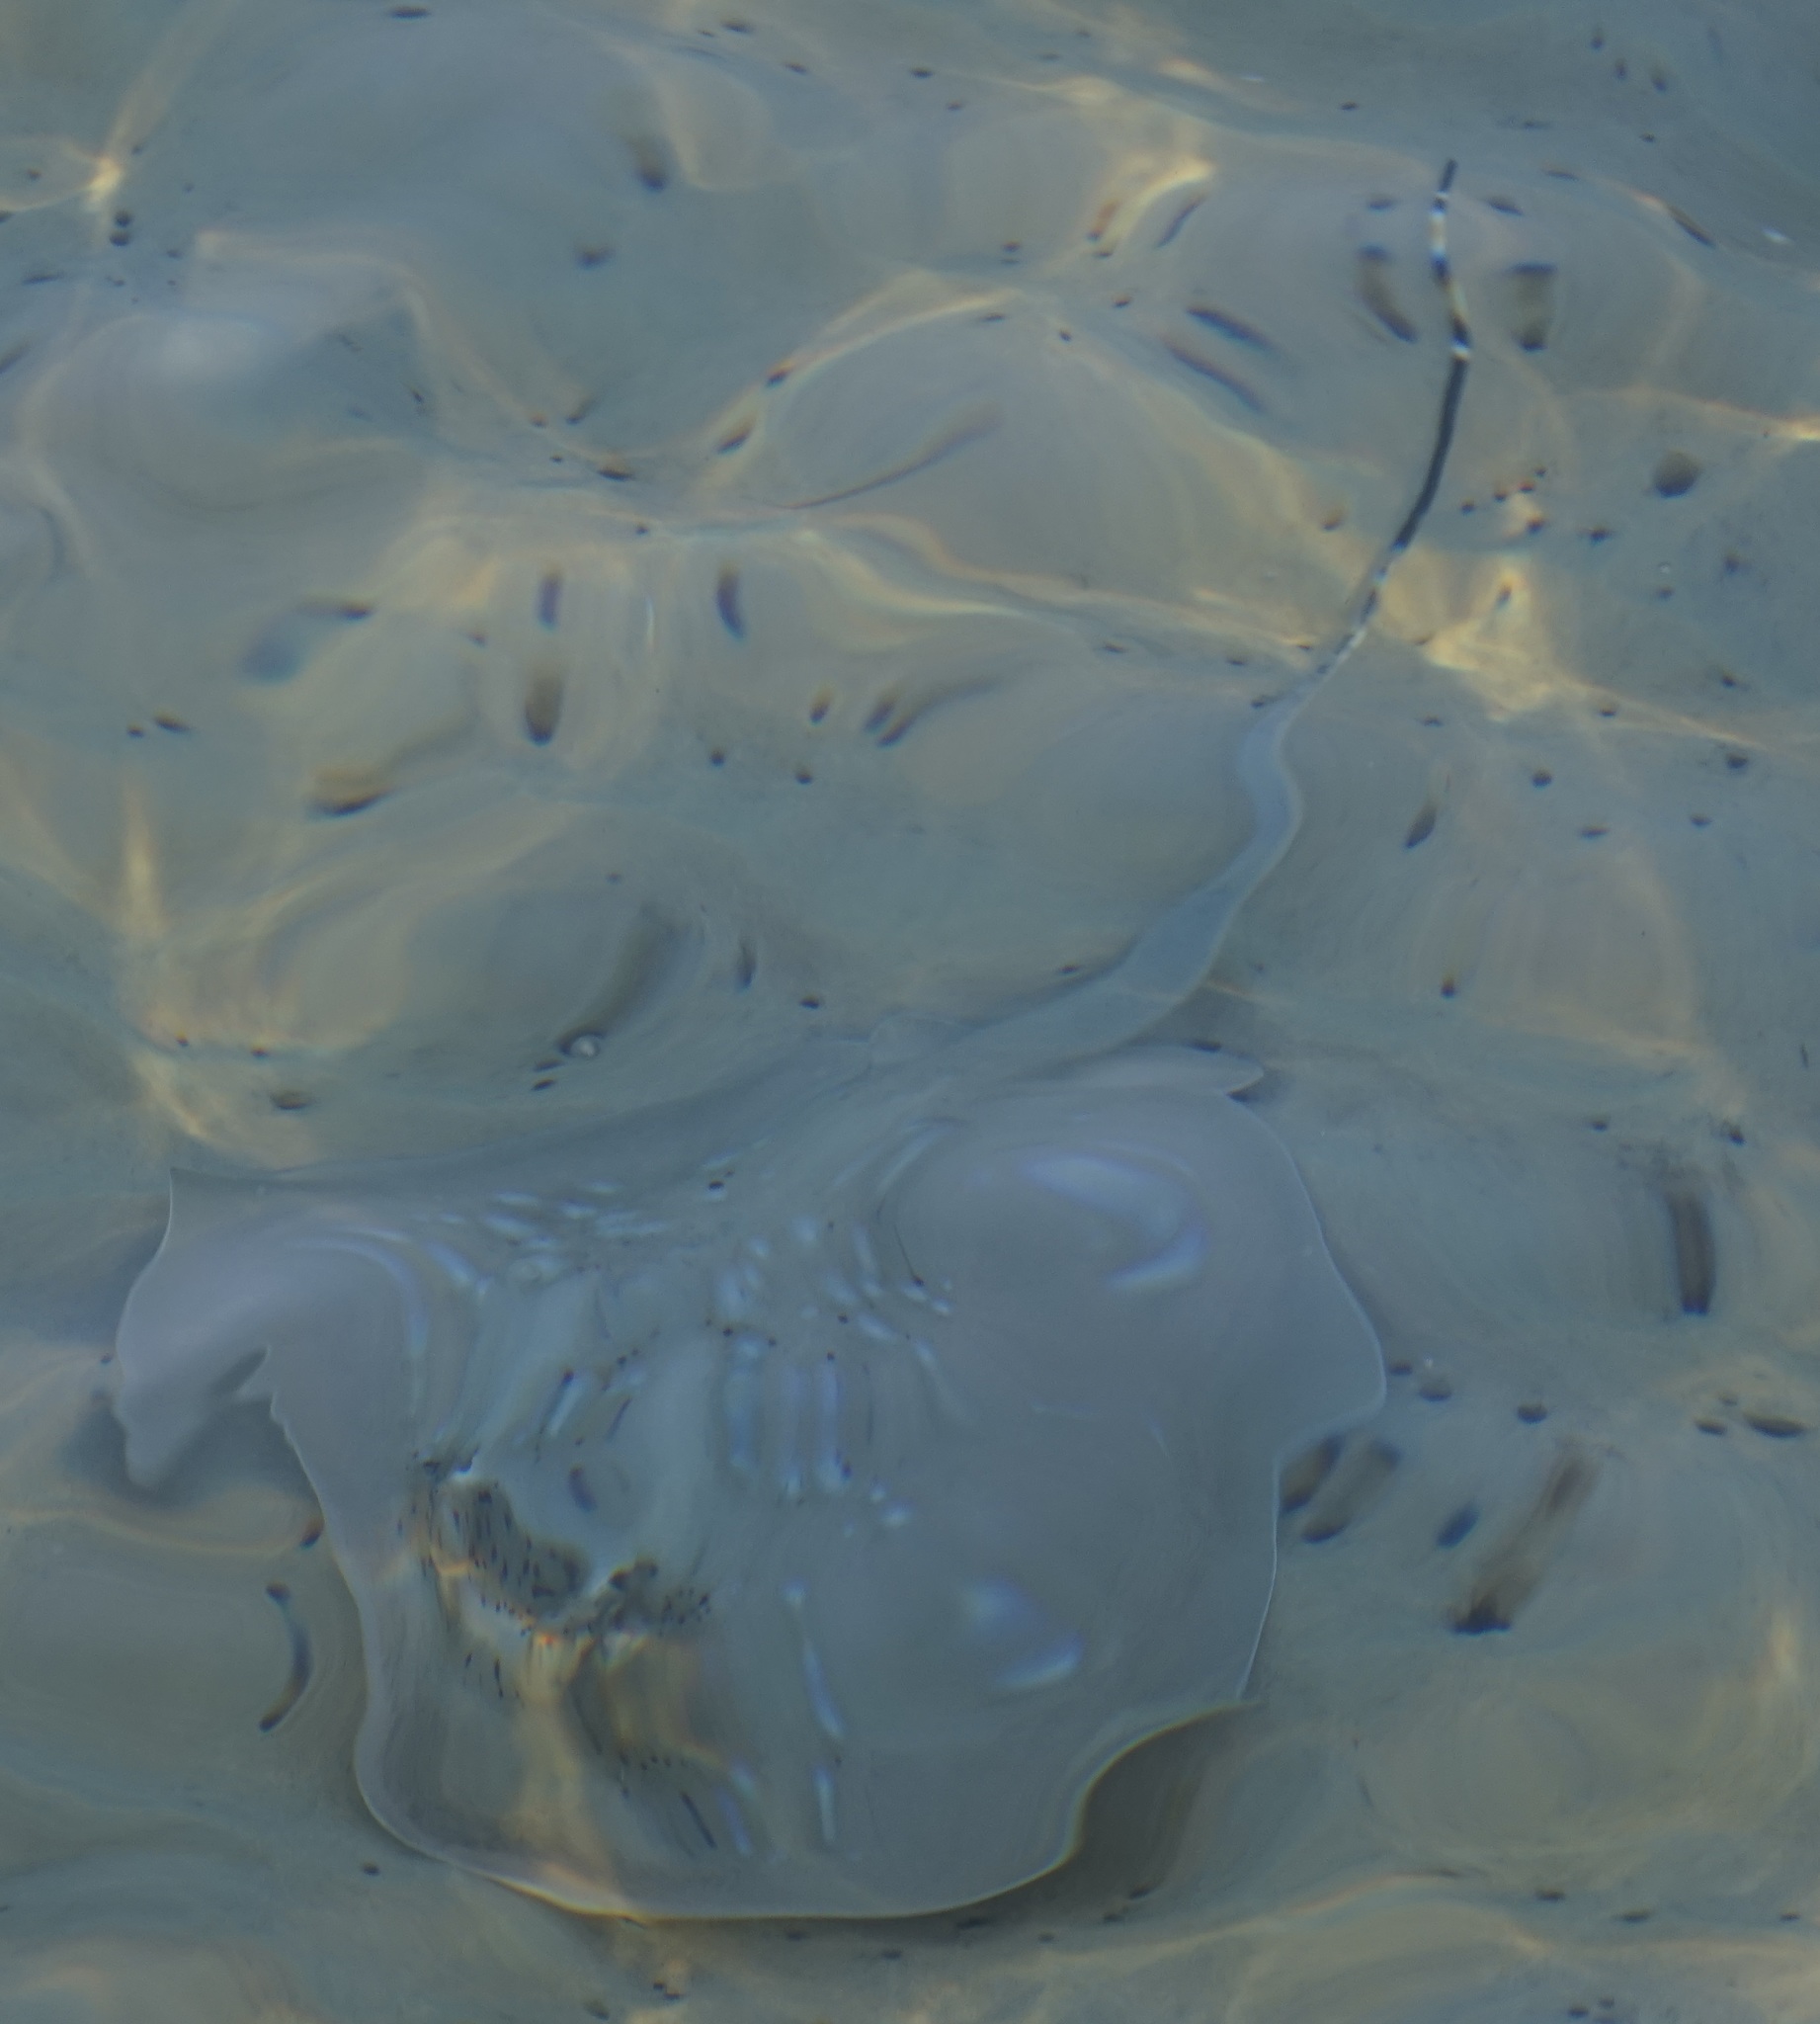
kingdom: Animalia
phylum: Chordata
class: Elasmobranchii
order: Myliobatiformes
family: Dasyatidae
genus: Neotrygon
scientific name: Neotrygon kuhlii
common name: Bluespotted stingray
